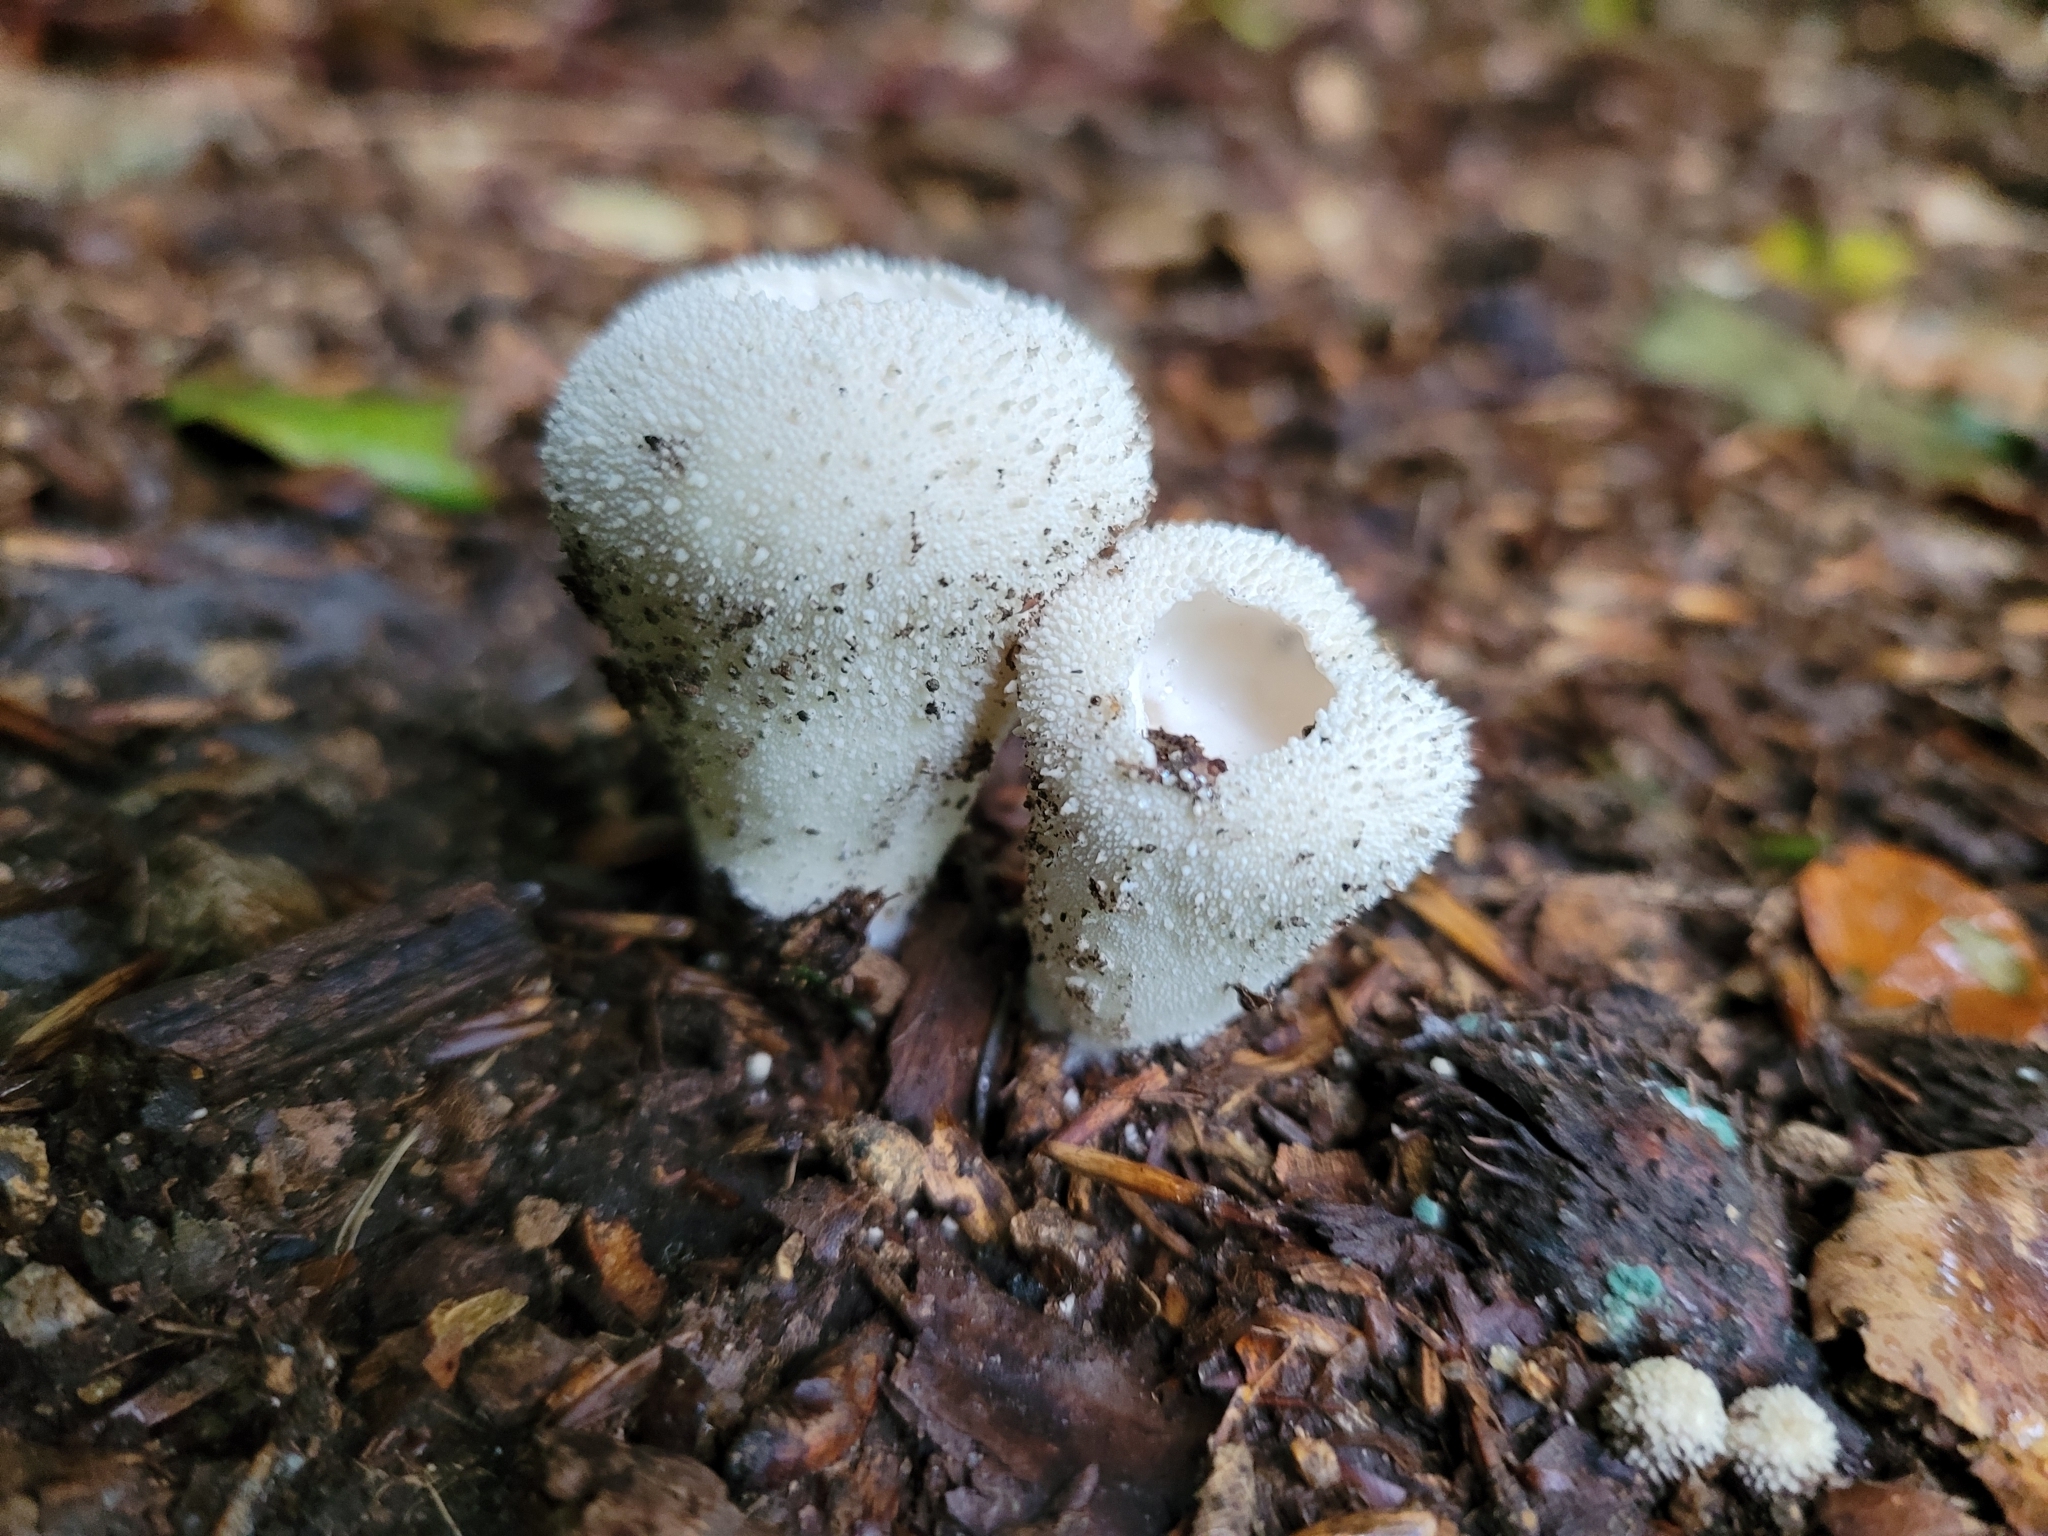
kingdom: Fungi
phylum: Basidiomycota
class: Agaricomycetes
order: Agaricales
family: Lycoperdaceae
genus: Lycoperdon
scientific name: Lycoperdon perlatum
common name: Common puffball
